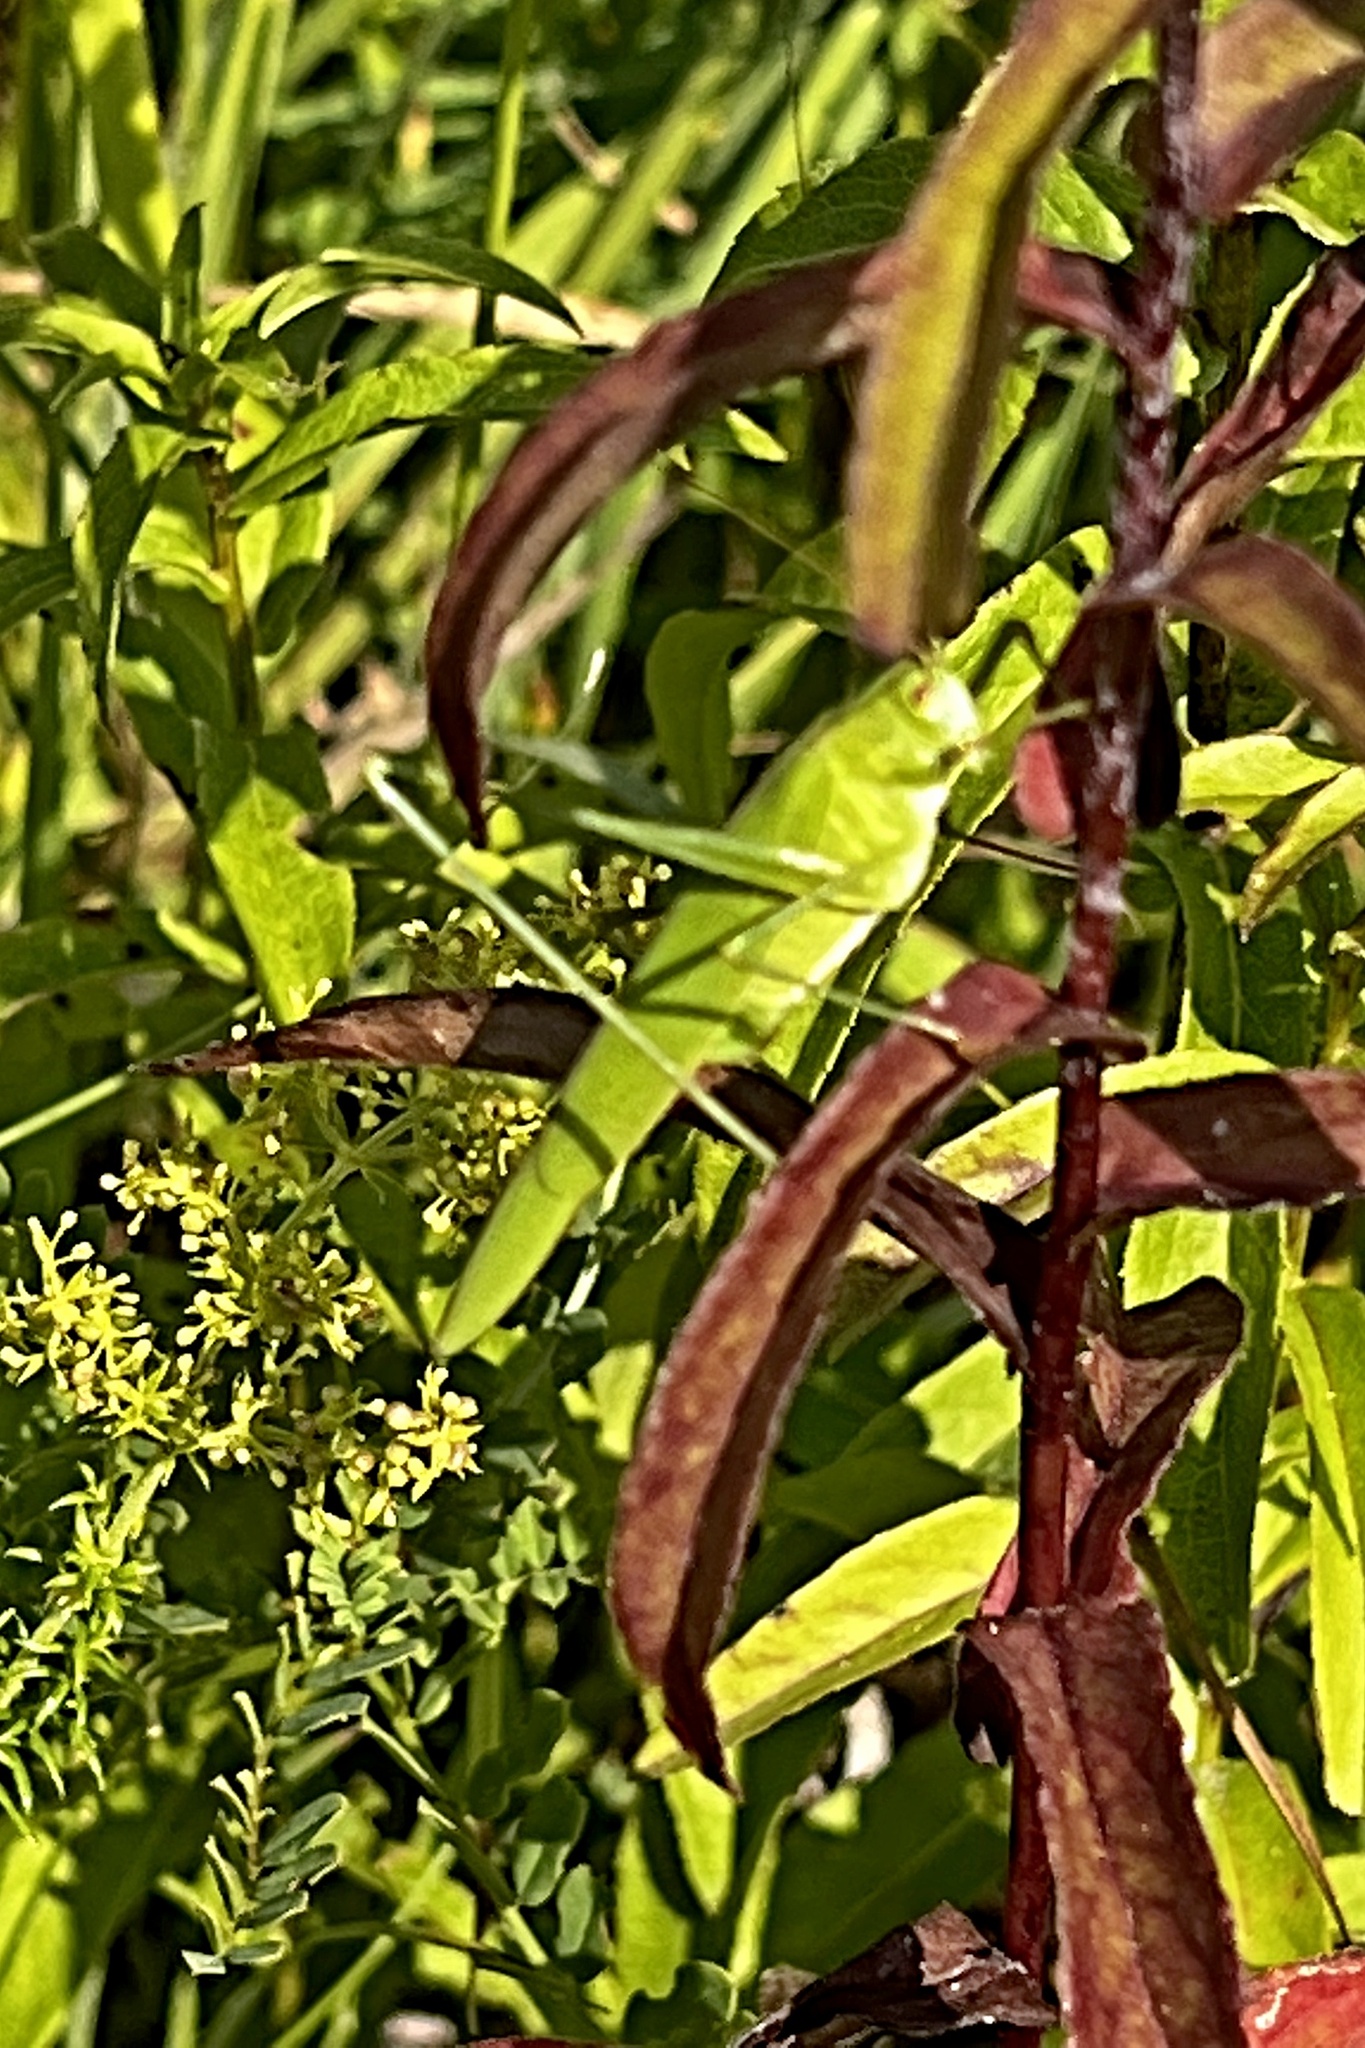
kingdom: Animalia
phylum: Arthropoda
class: Insecta
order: Orthoptera
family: Tettigoniidae
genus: Phaneroptera
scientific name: Phaneroptera falcata
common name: Sickle-bearing bush-cricket
